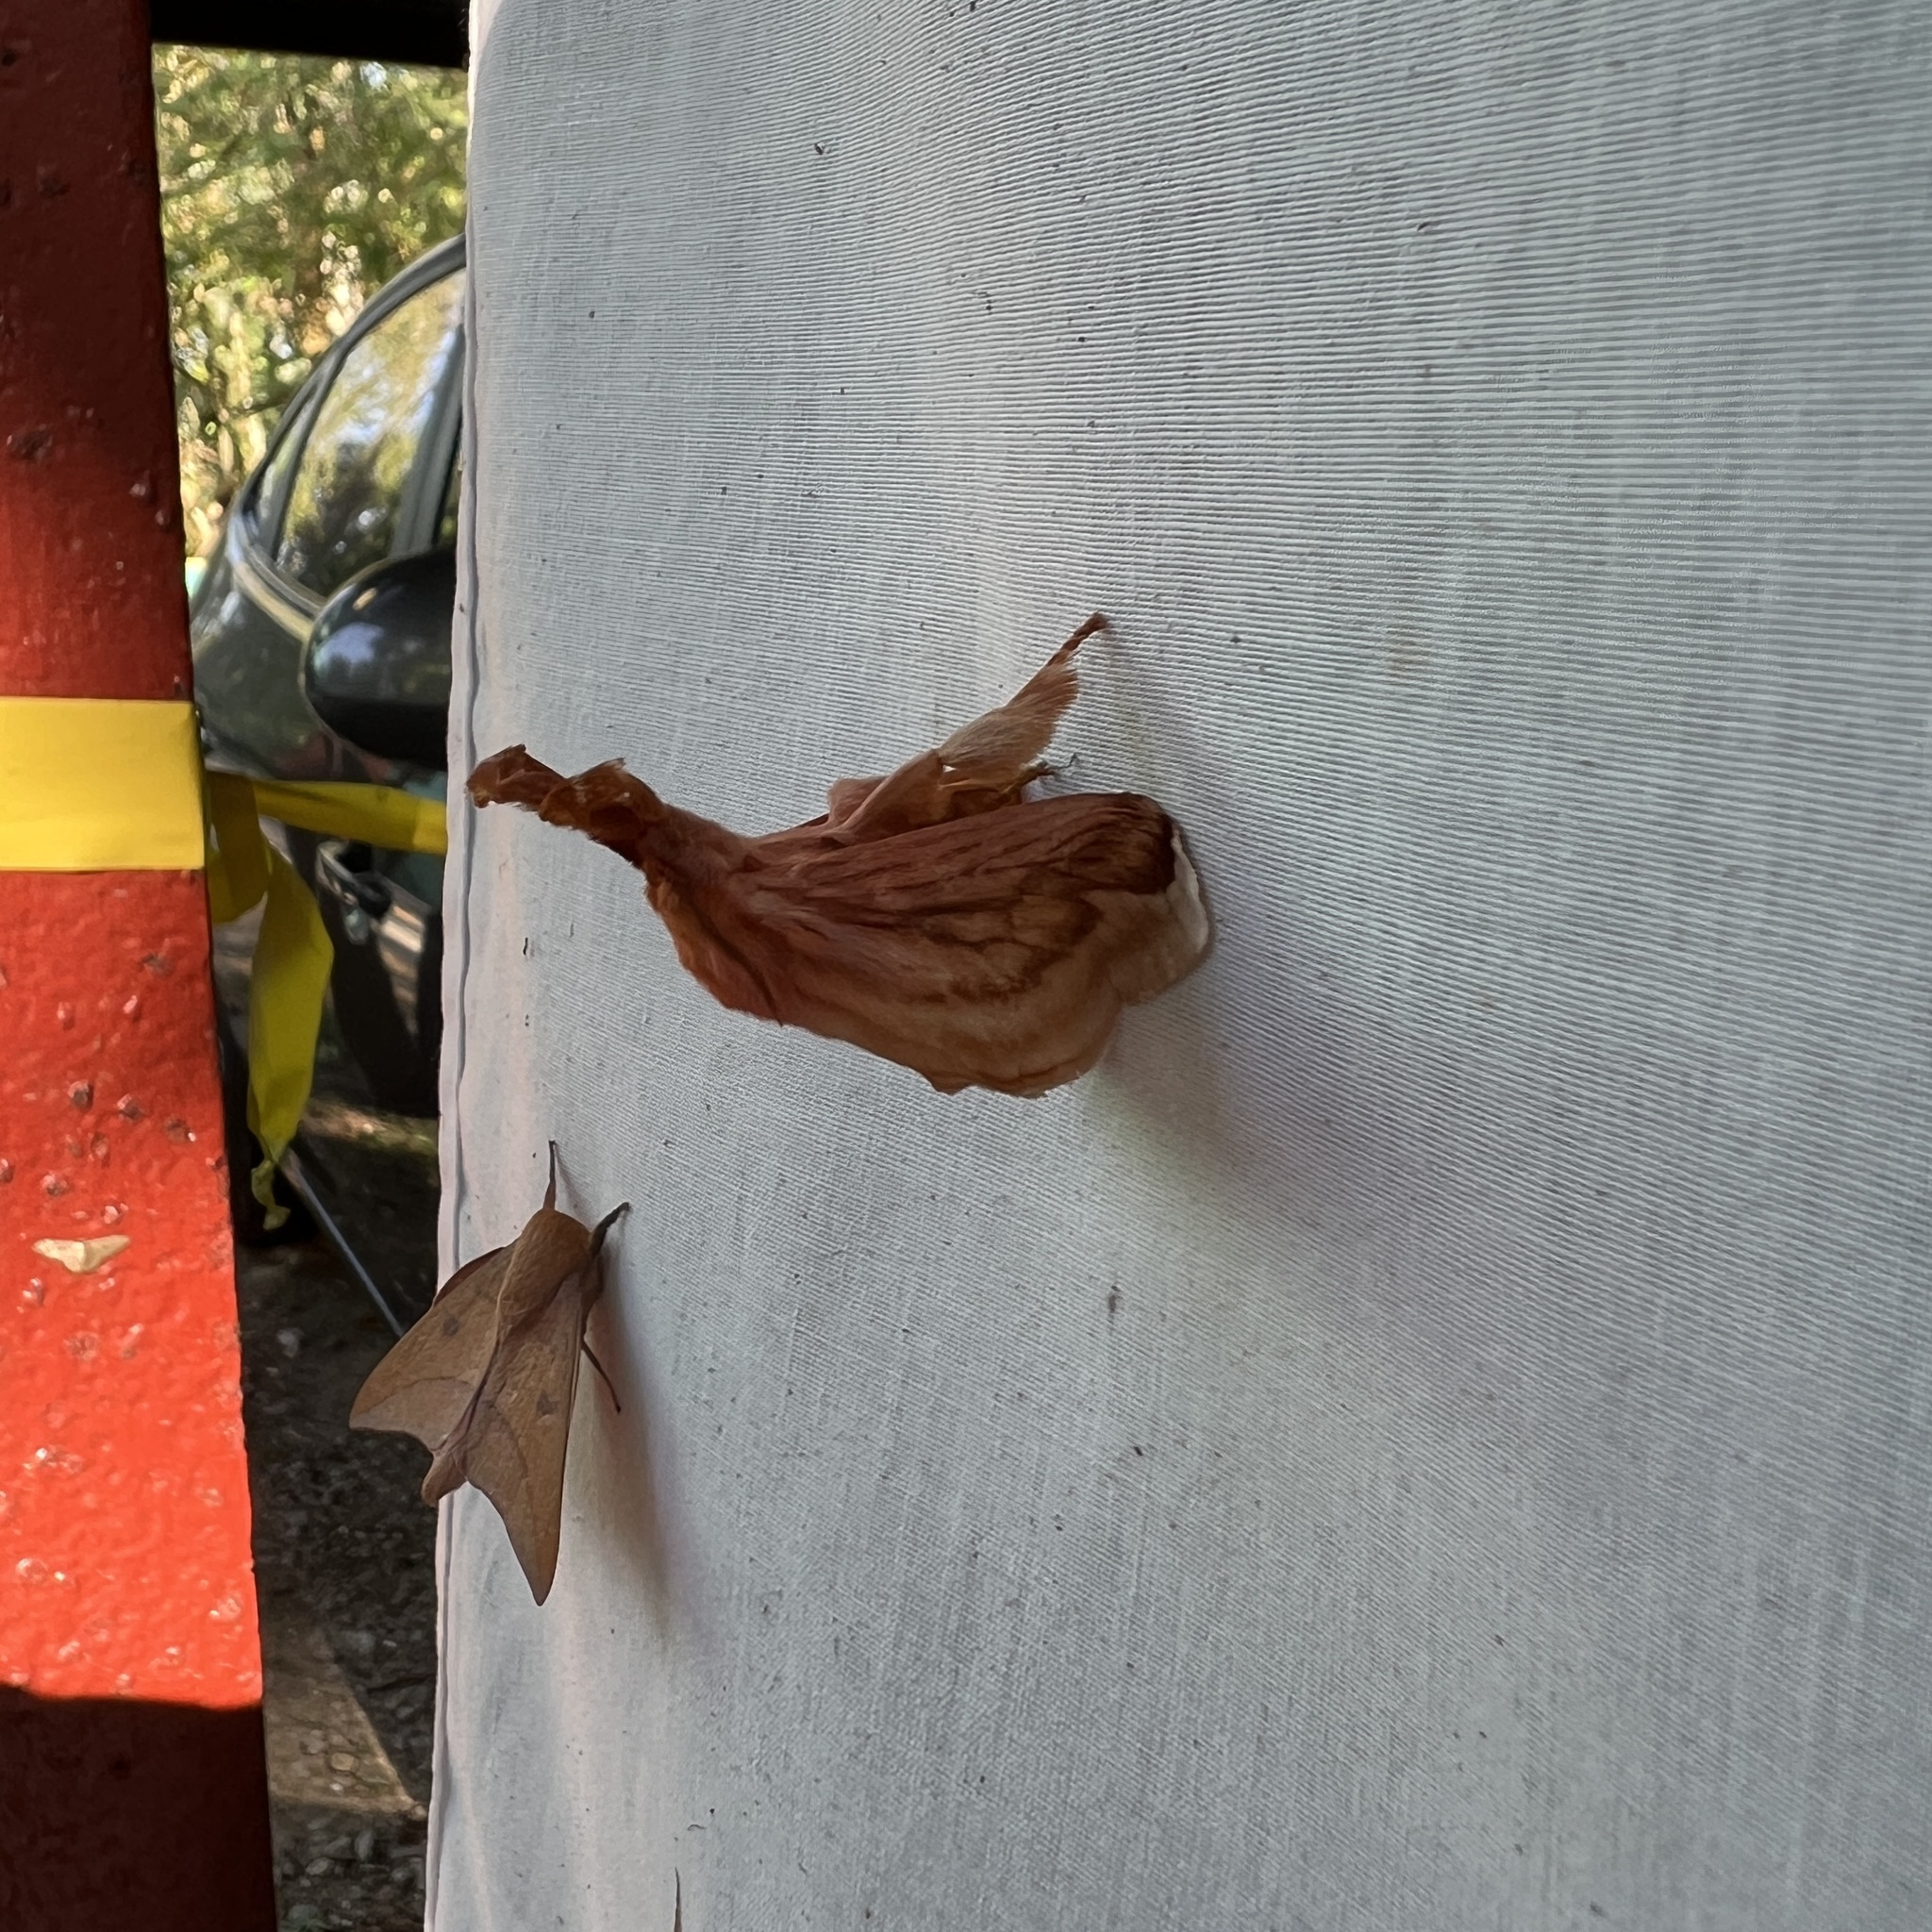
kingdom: Animalia
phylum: Arthropoda
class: Insecta
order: Lepidoptera
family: Limacodidae
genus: Perola
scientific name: Perola villosipes
